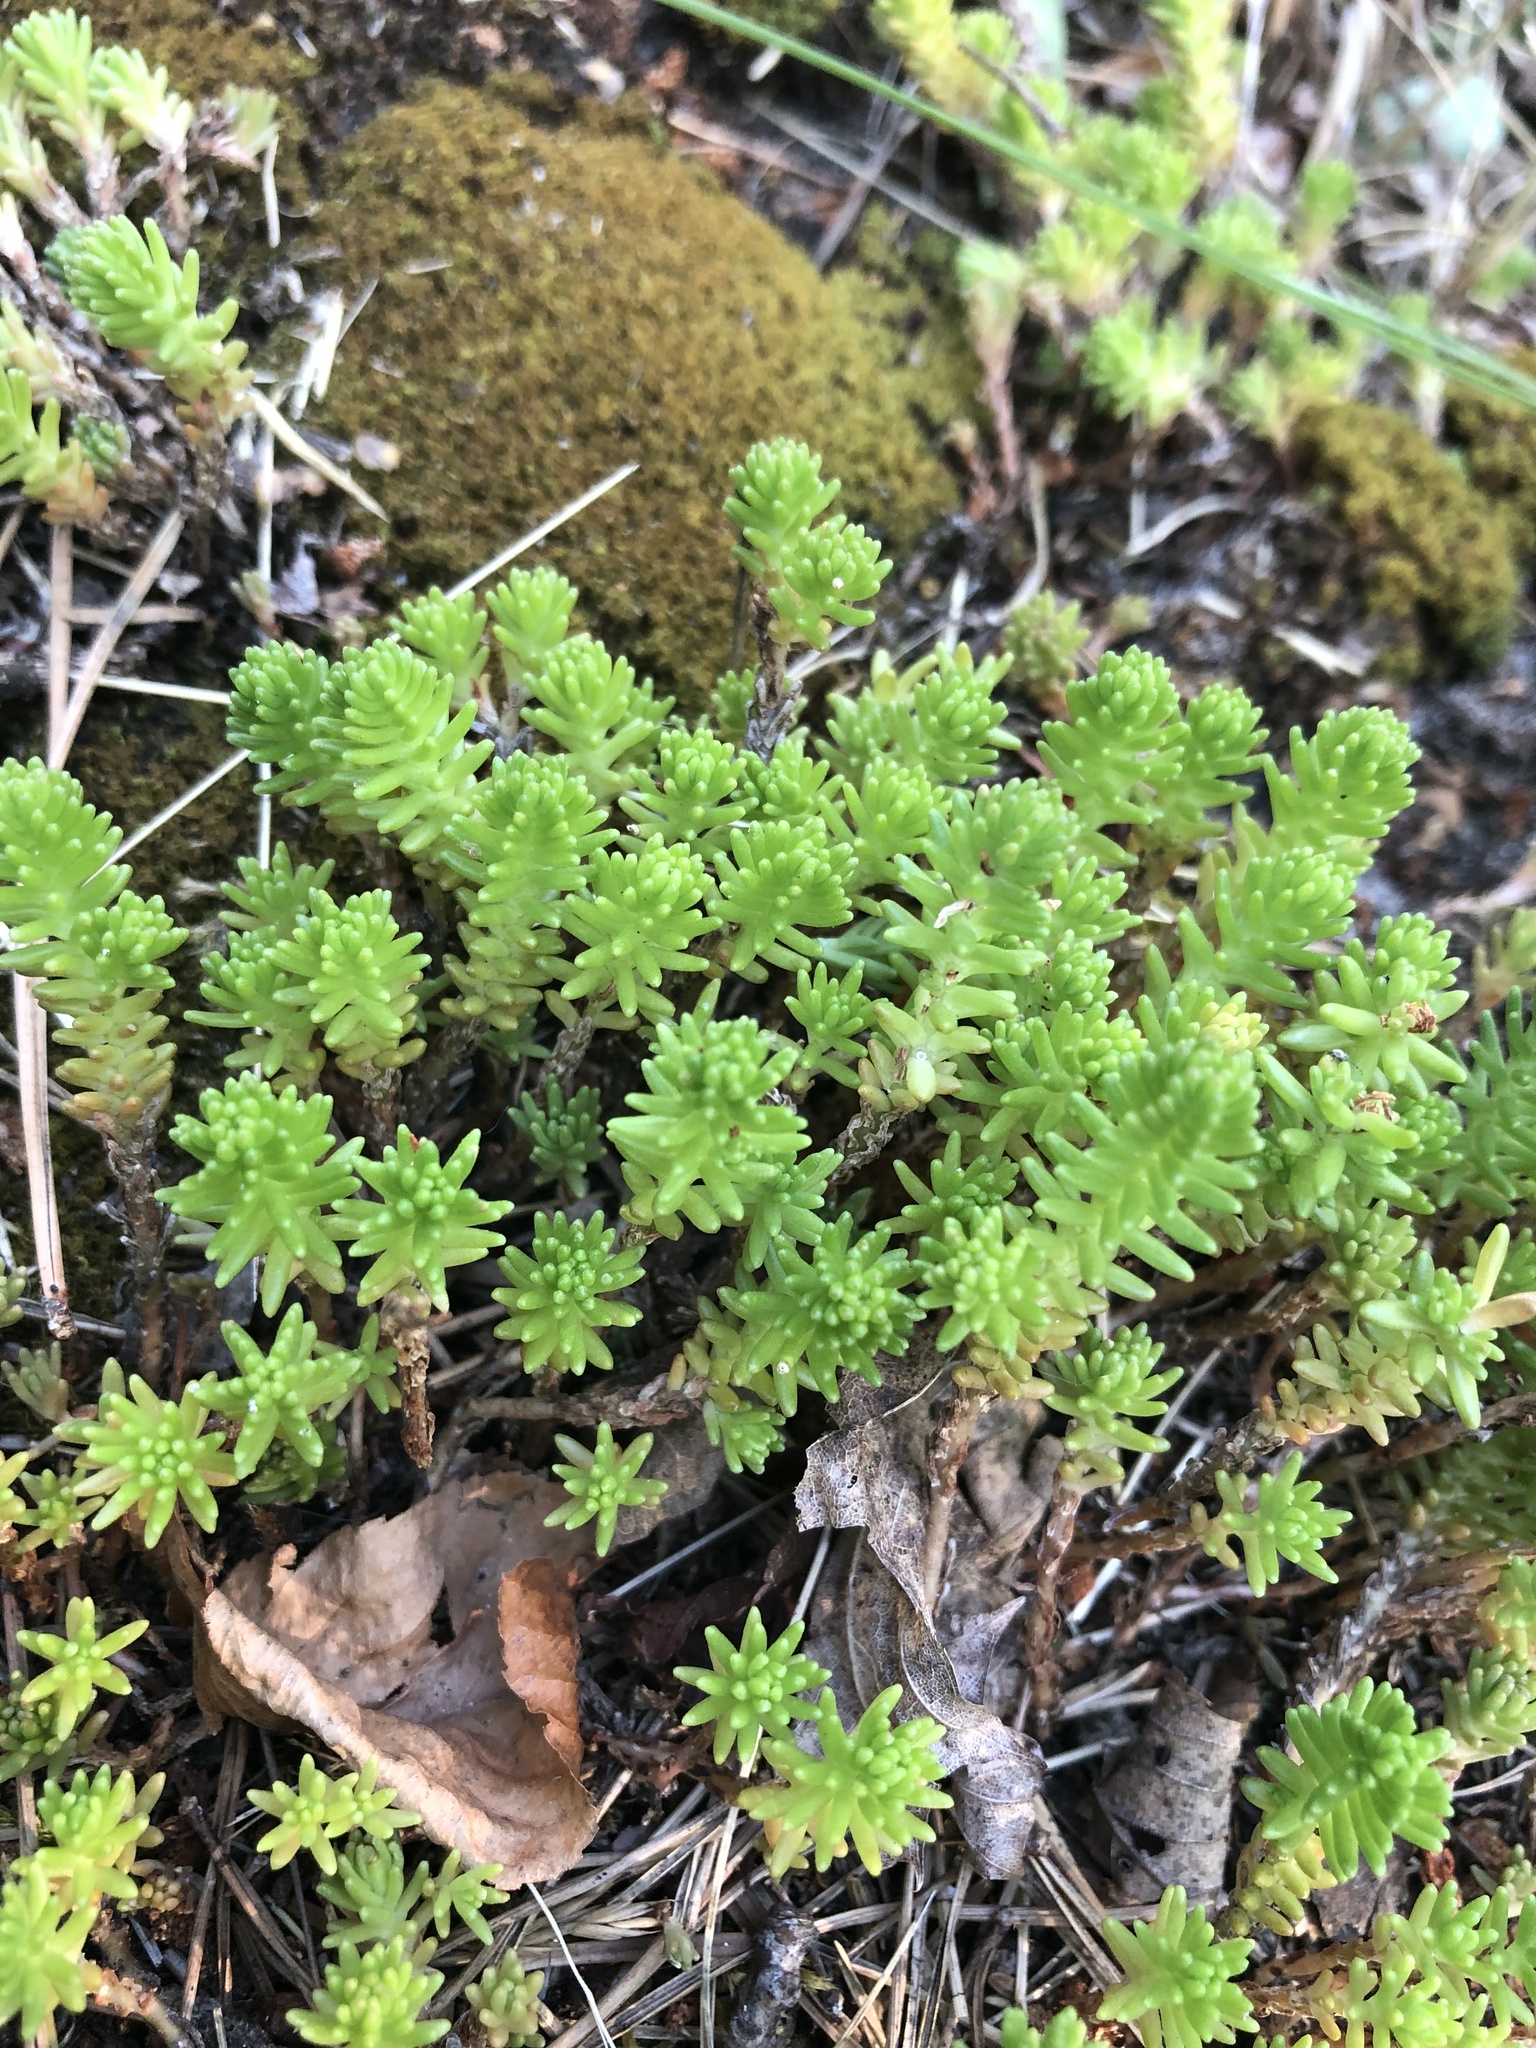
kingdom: Plantae
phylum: Tracheophyta
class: Magnoliopsida
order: Saxifragales
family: Crassulaceae
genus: Sedum
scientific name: Sedum sexangulare
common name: Tasteless stonecrop
